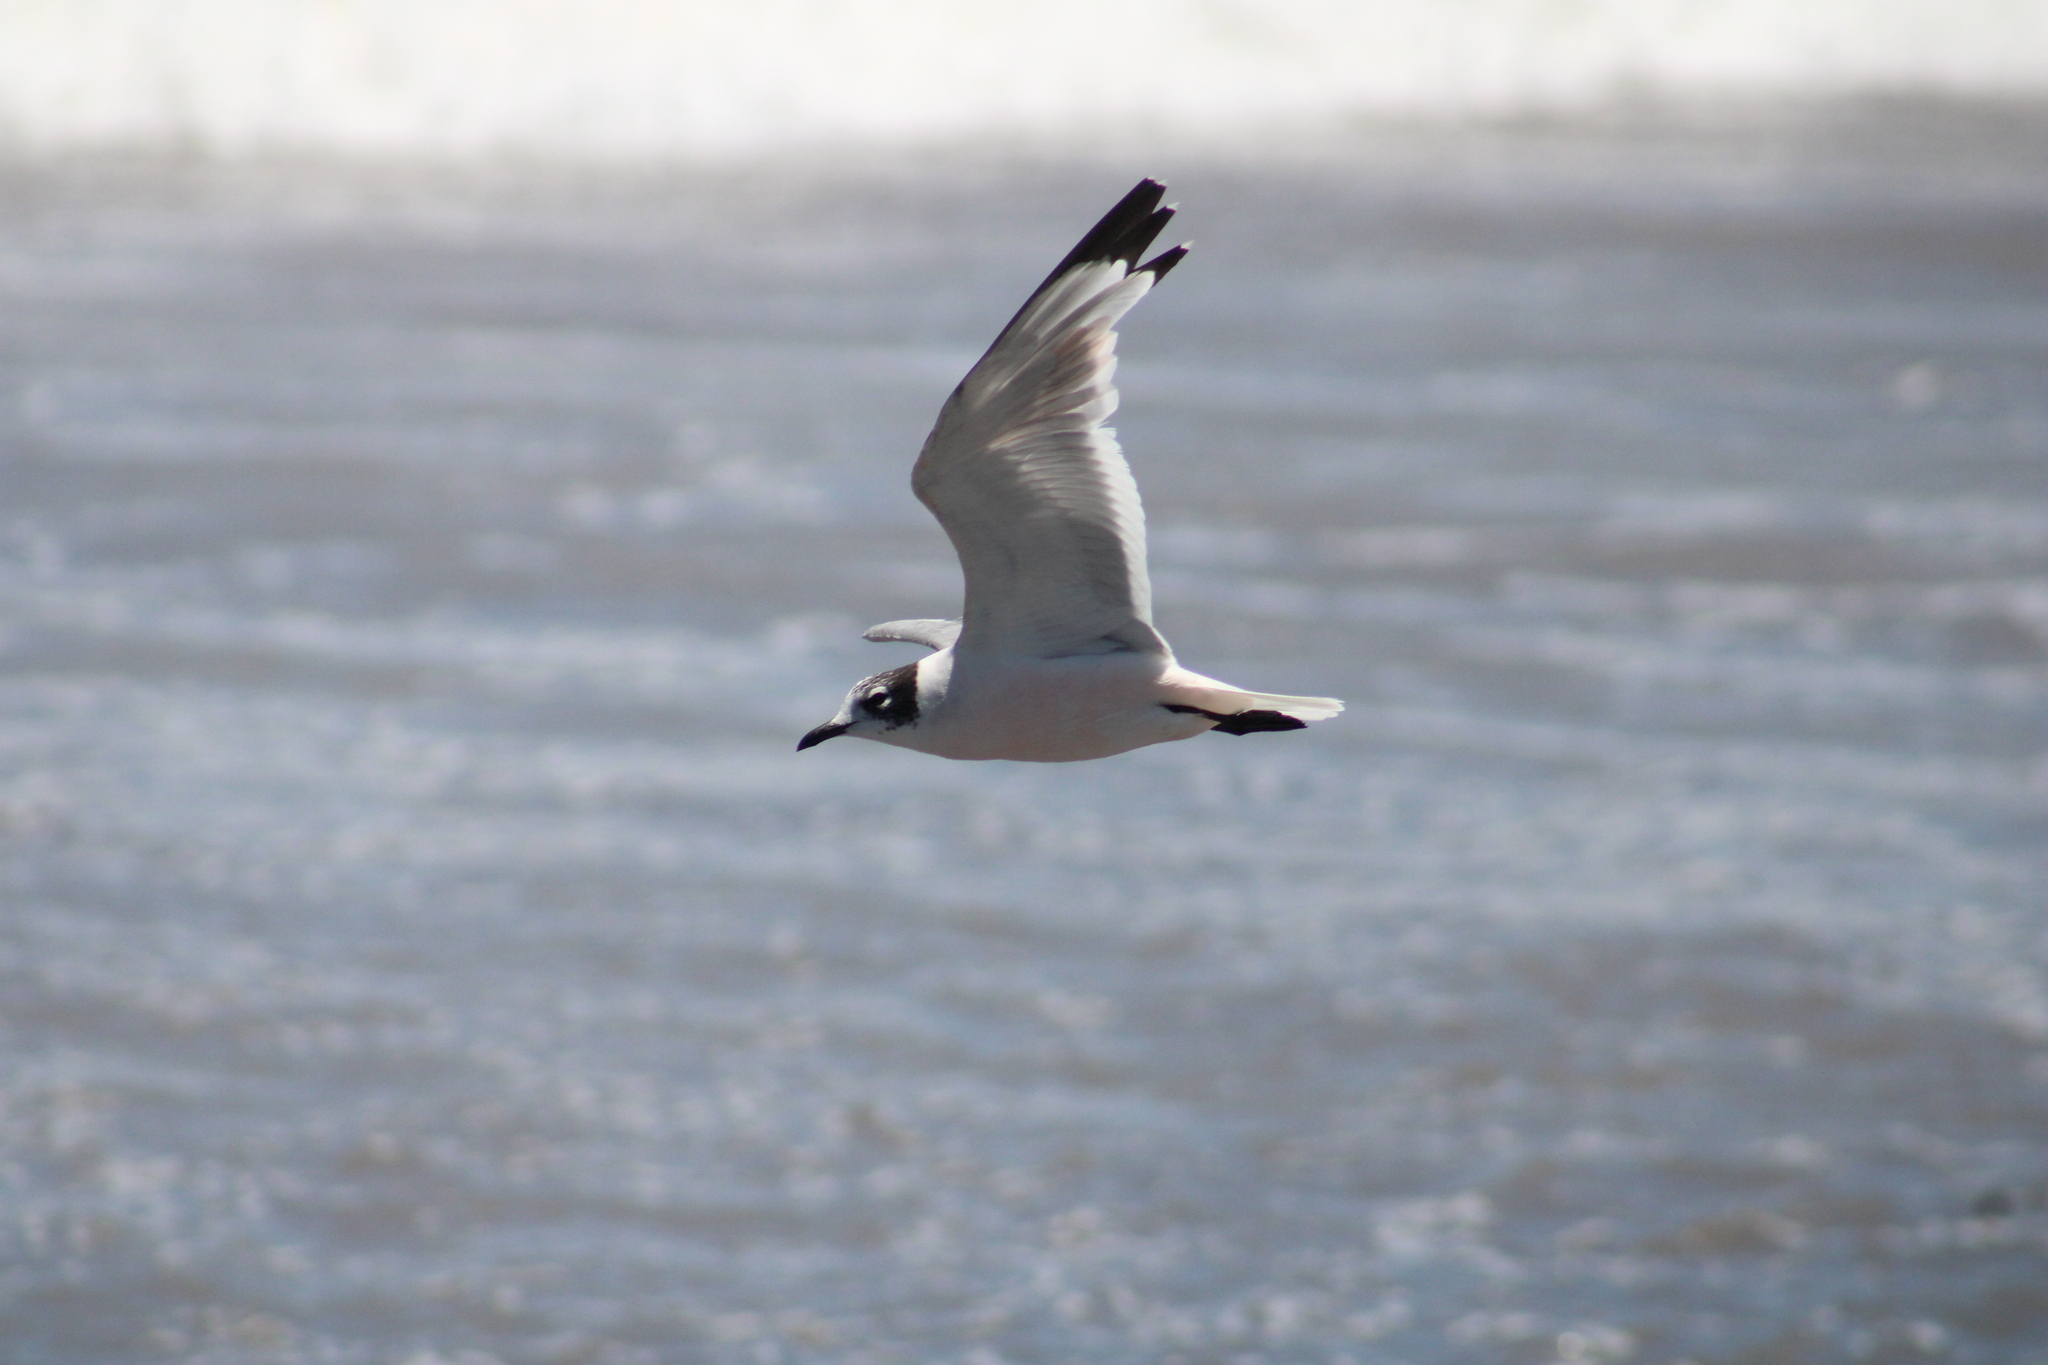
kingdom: Animalia
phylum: Chordata
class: Aves
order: Charadriiformes
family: Laridae
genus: Leucophaeus
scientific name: Leucophaeus pipixcan
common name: Franklin's gull
